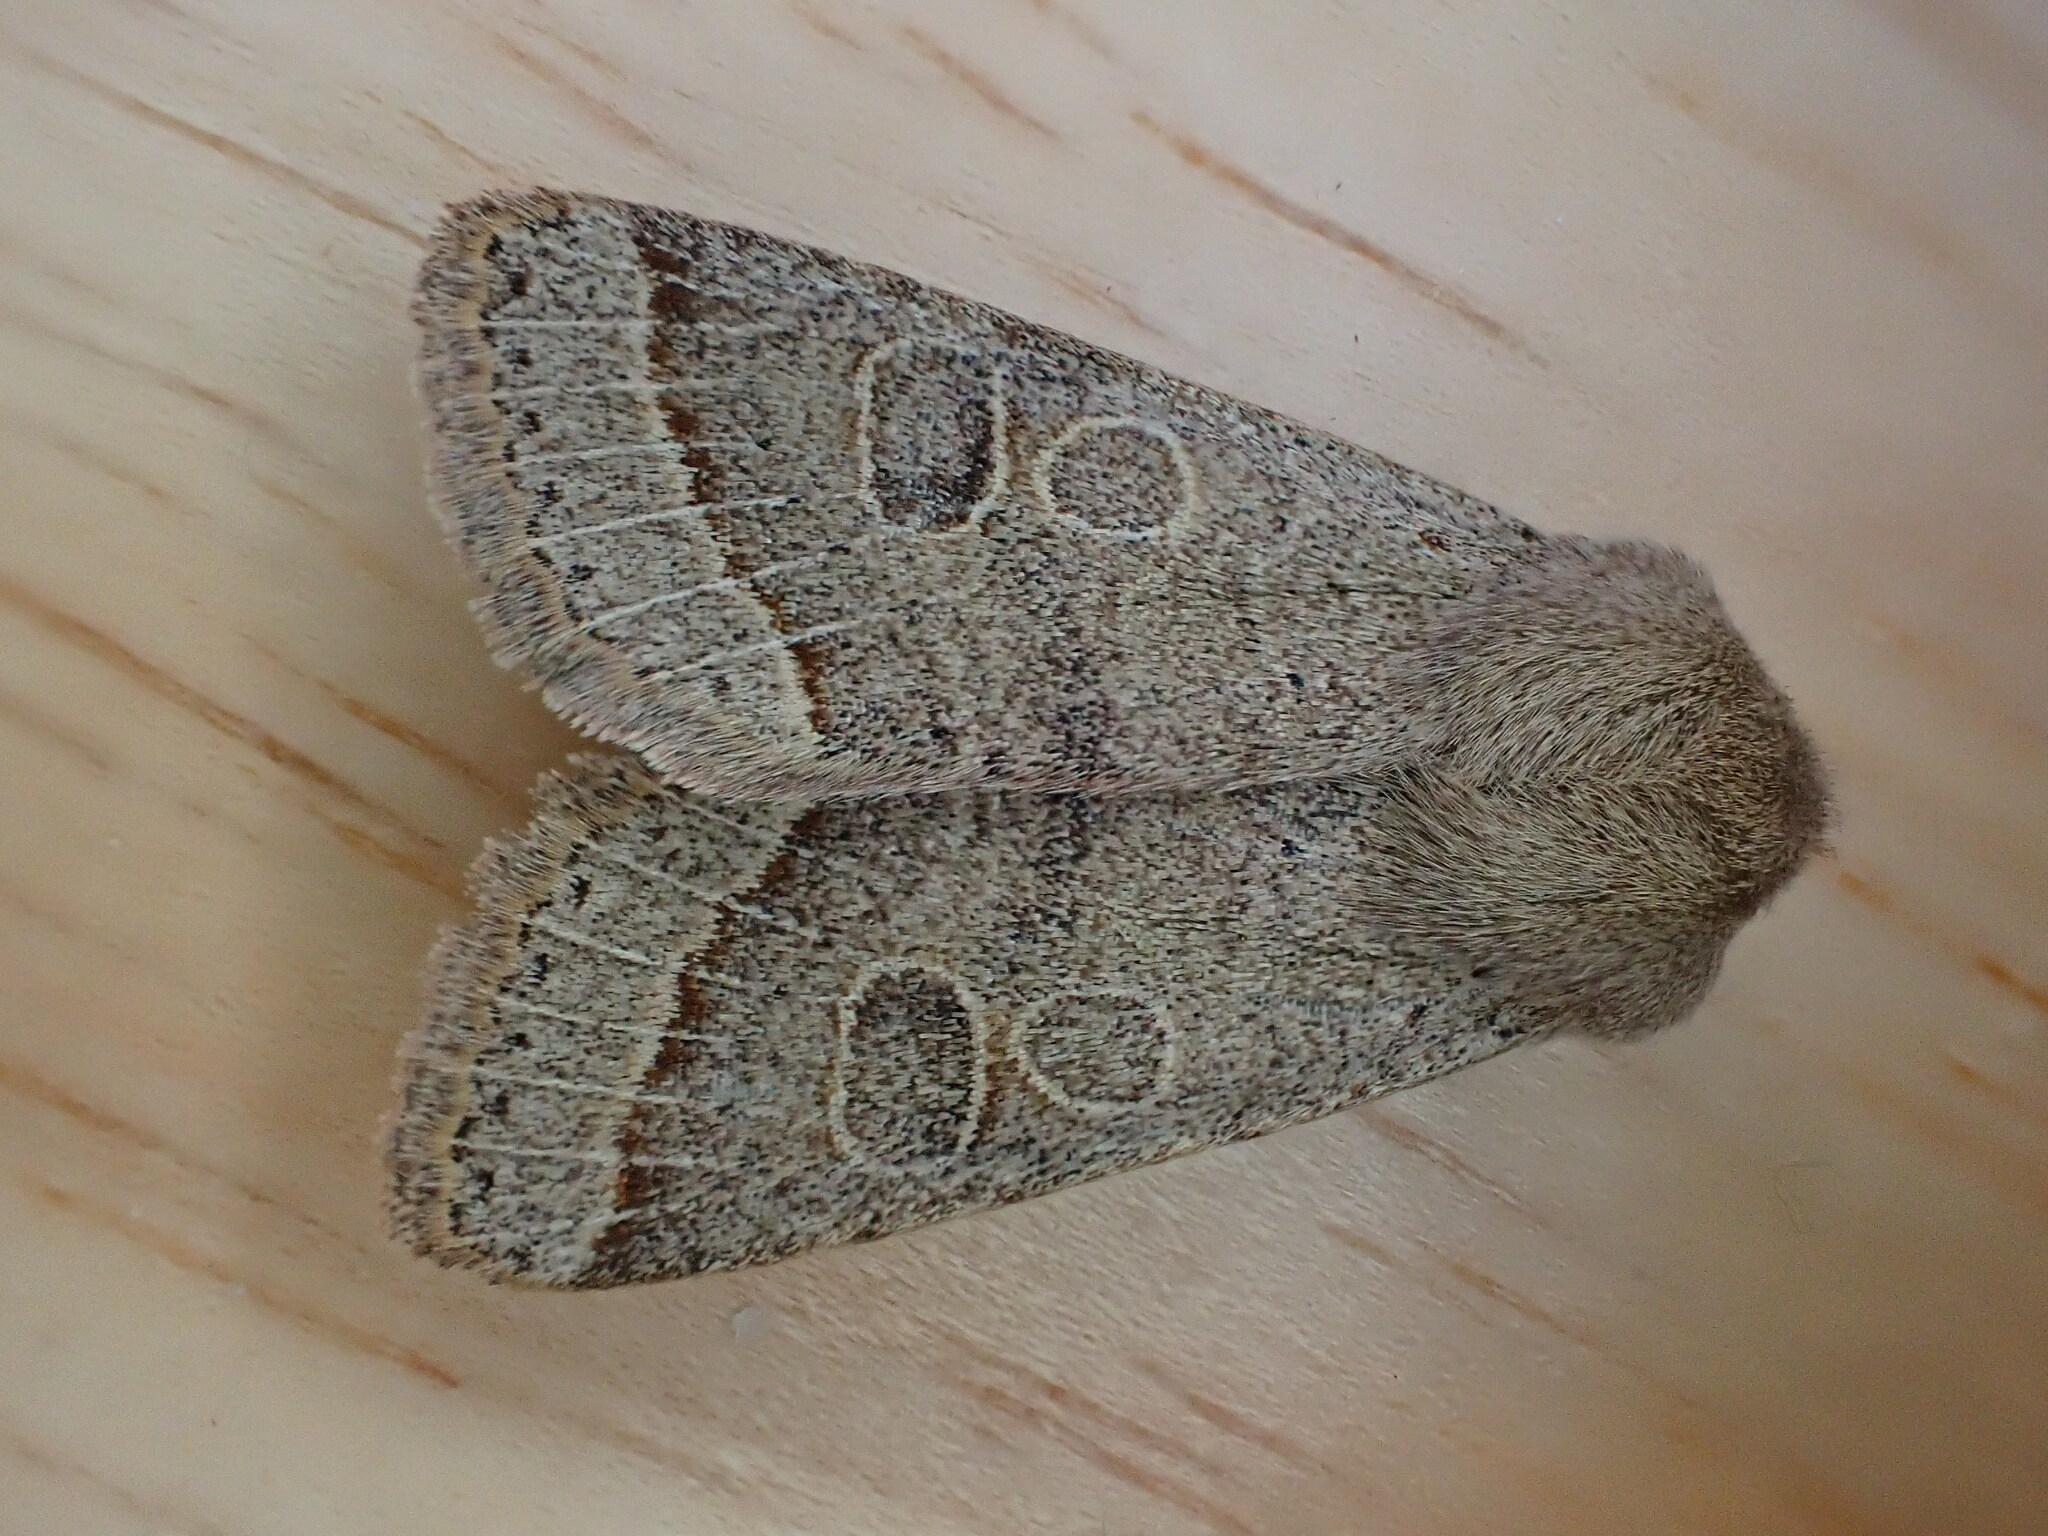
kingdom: Animalia
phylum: Arthropoda
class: Insecta
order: Lepidoptera
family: Noctuidae
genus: Orthosia
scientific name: Orthosia cerasi
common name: Common quaker
